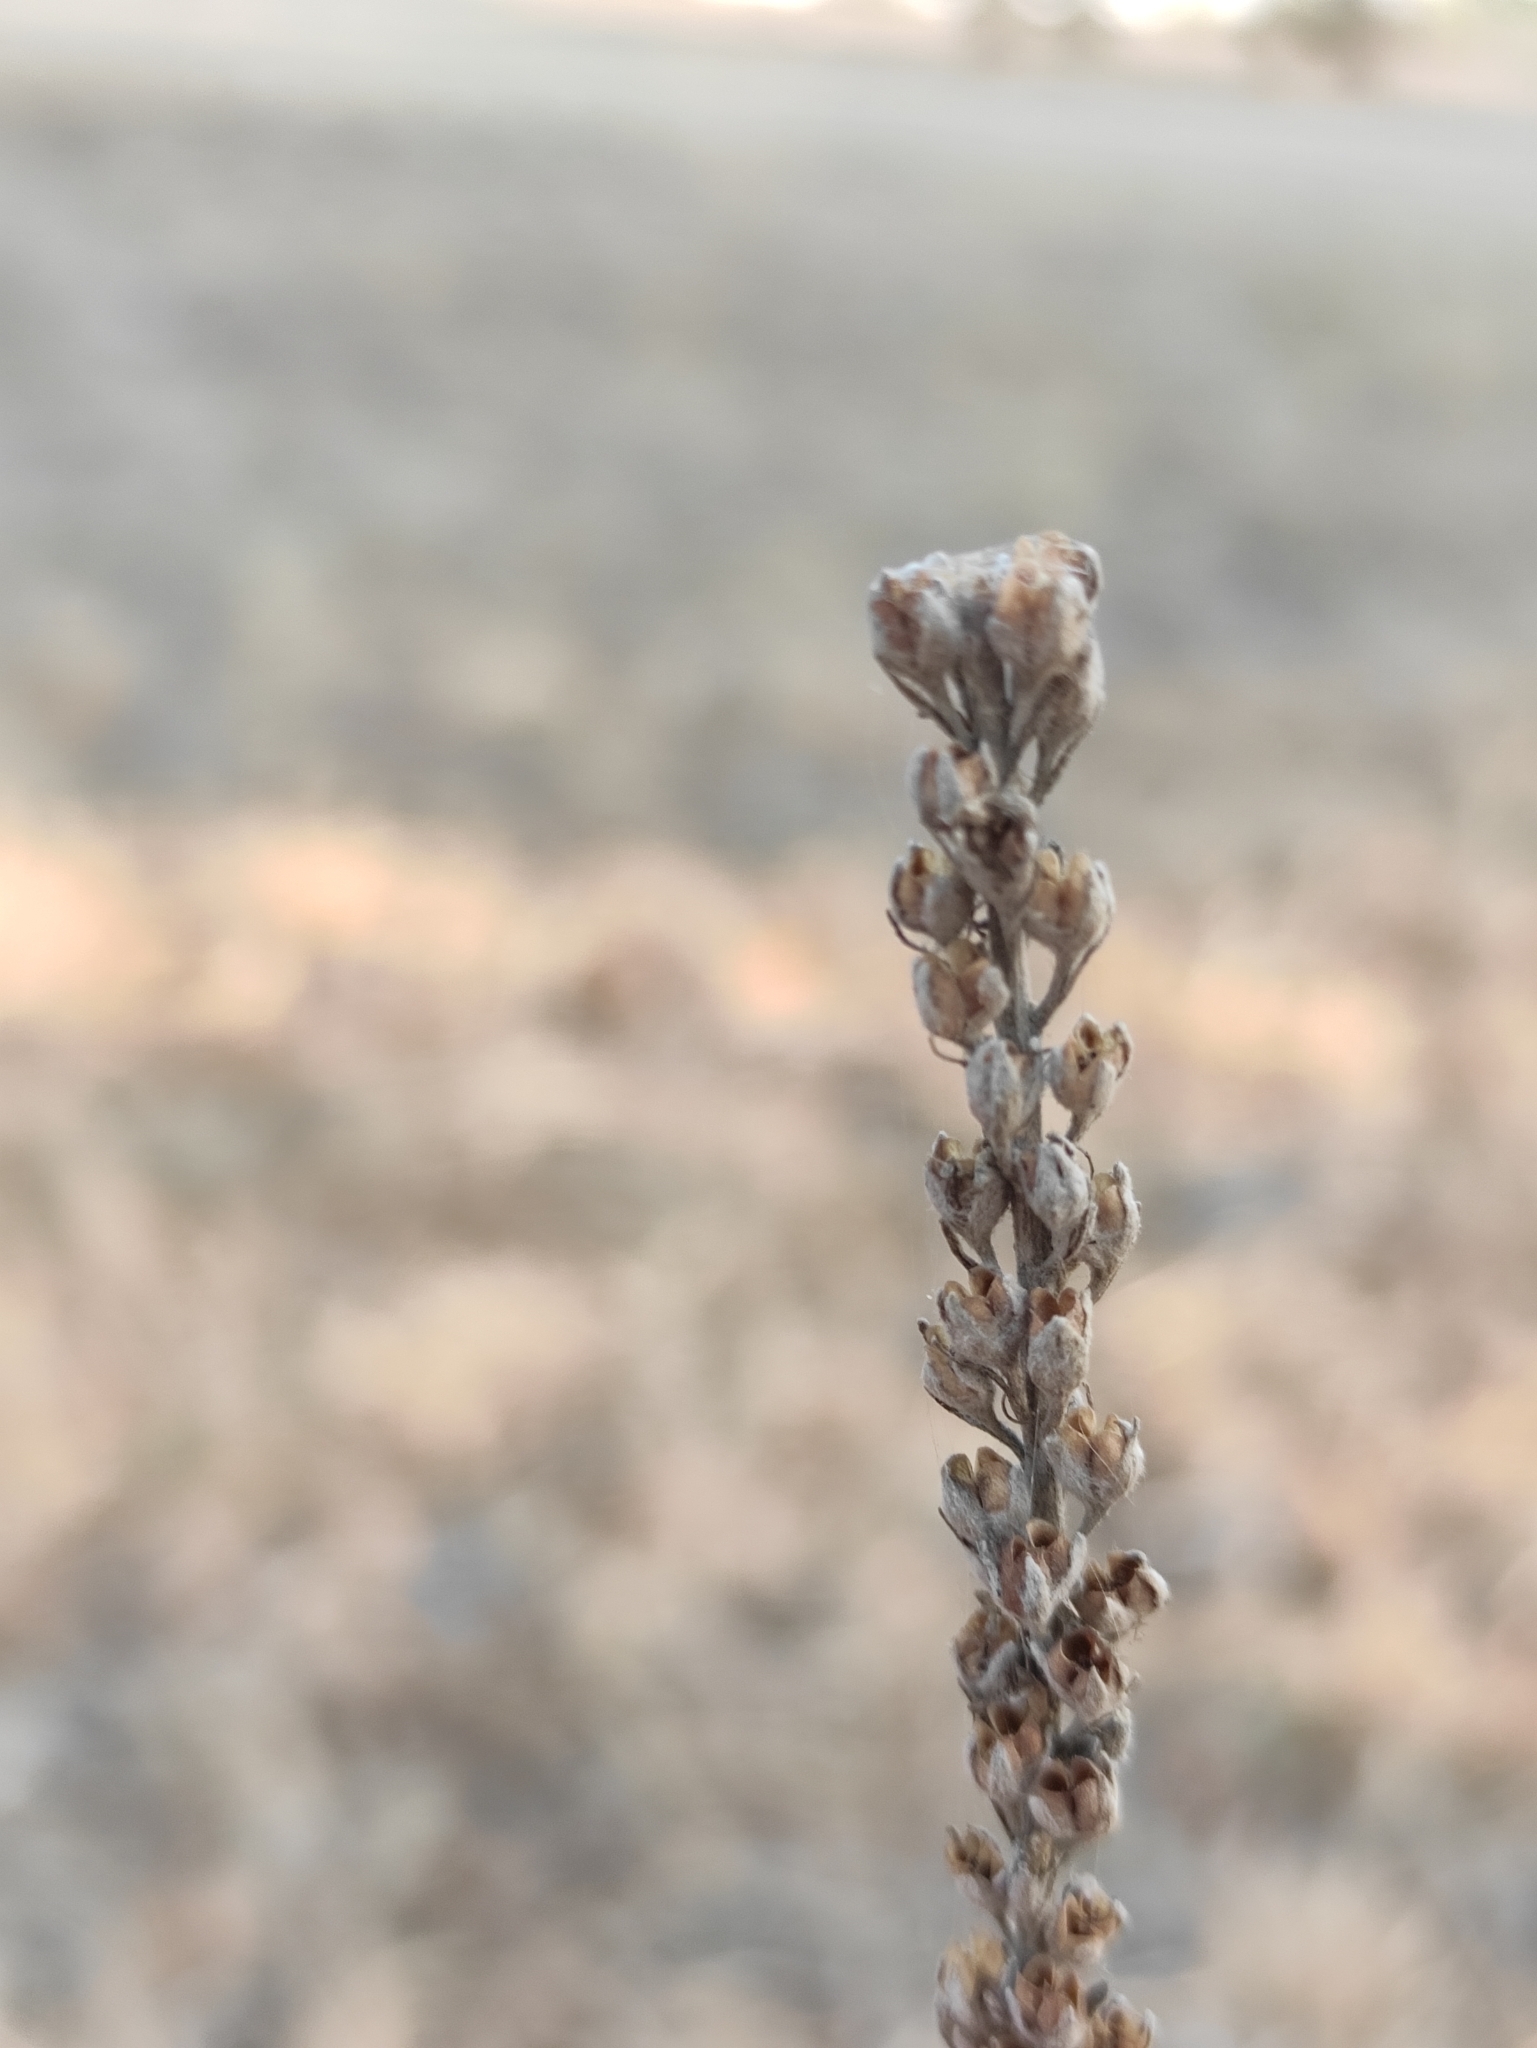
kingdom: Plantae
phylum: Tracheophyta
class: Magnoliopsida
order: Lamiales
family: Plantaginaceae
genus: Veronica
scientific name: Veronica incana
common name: Silver speedwell
